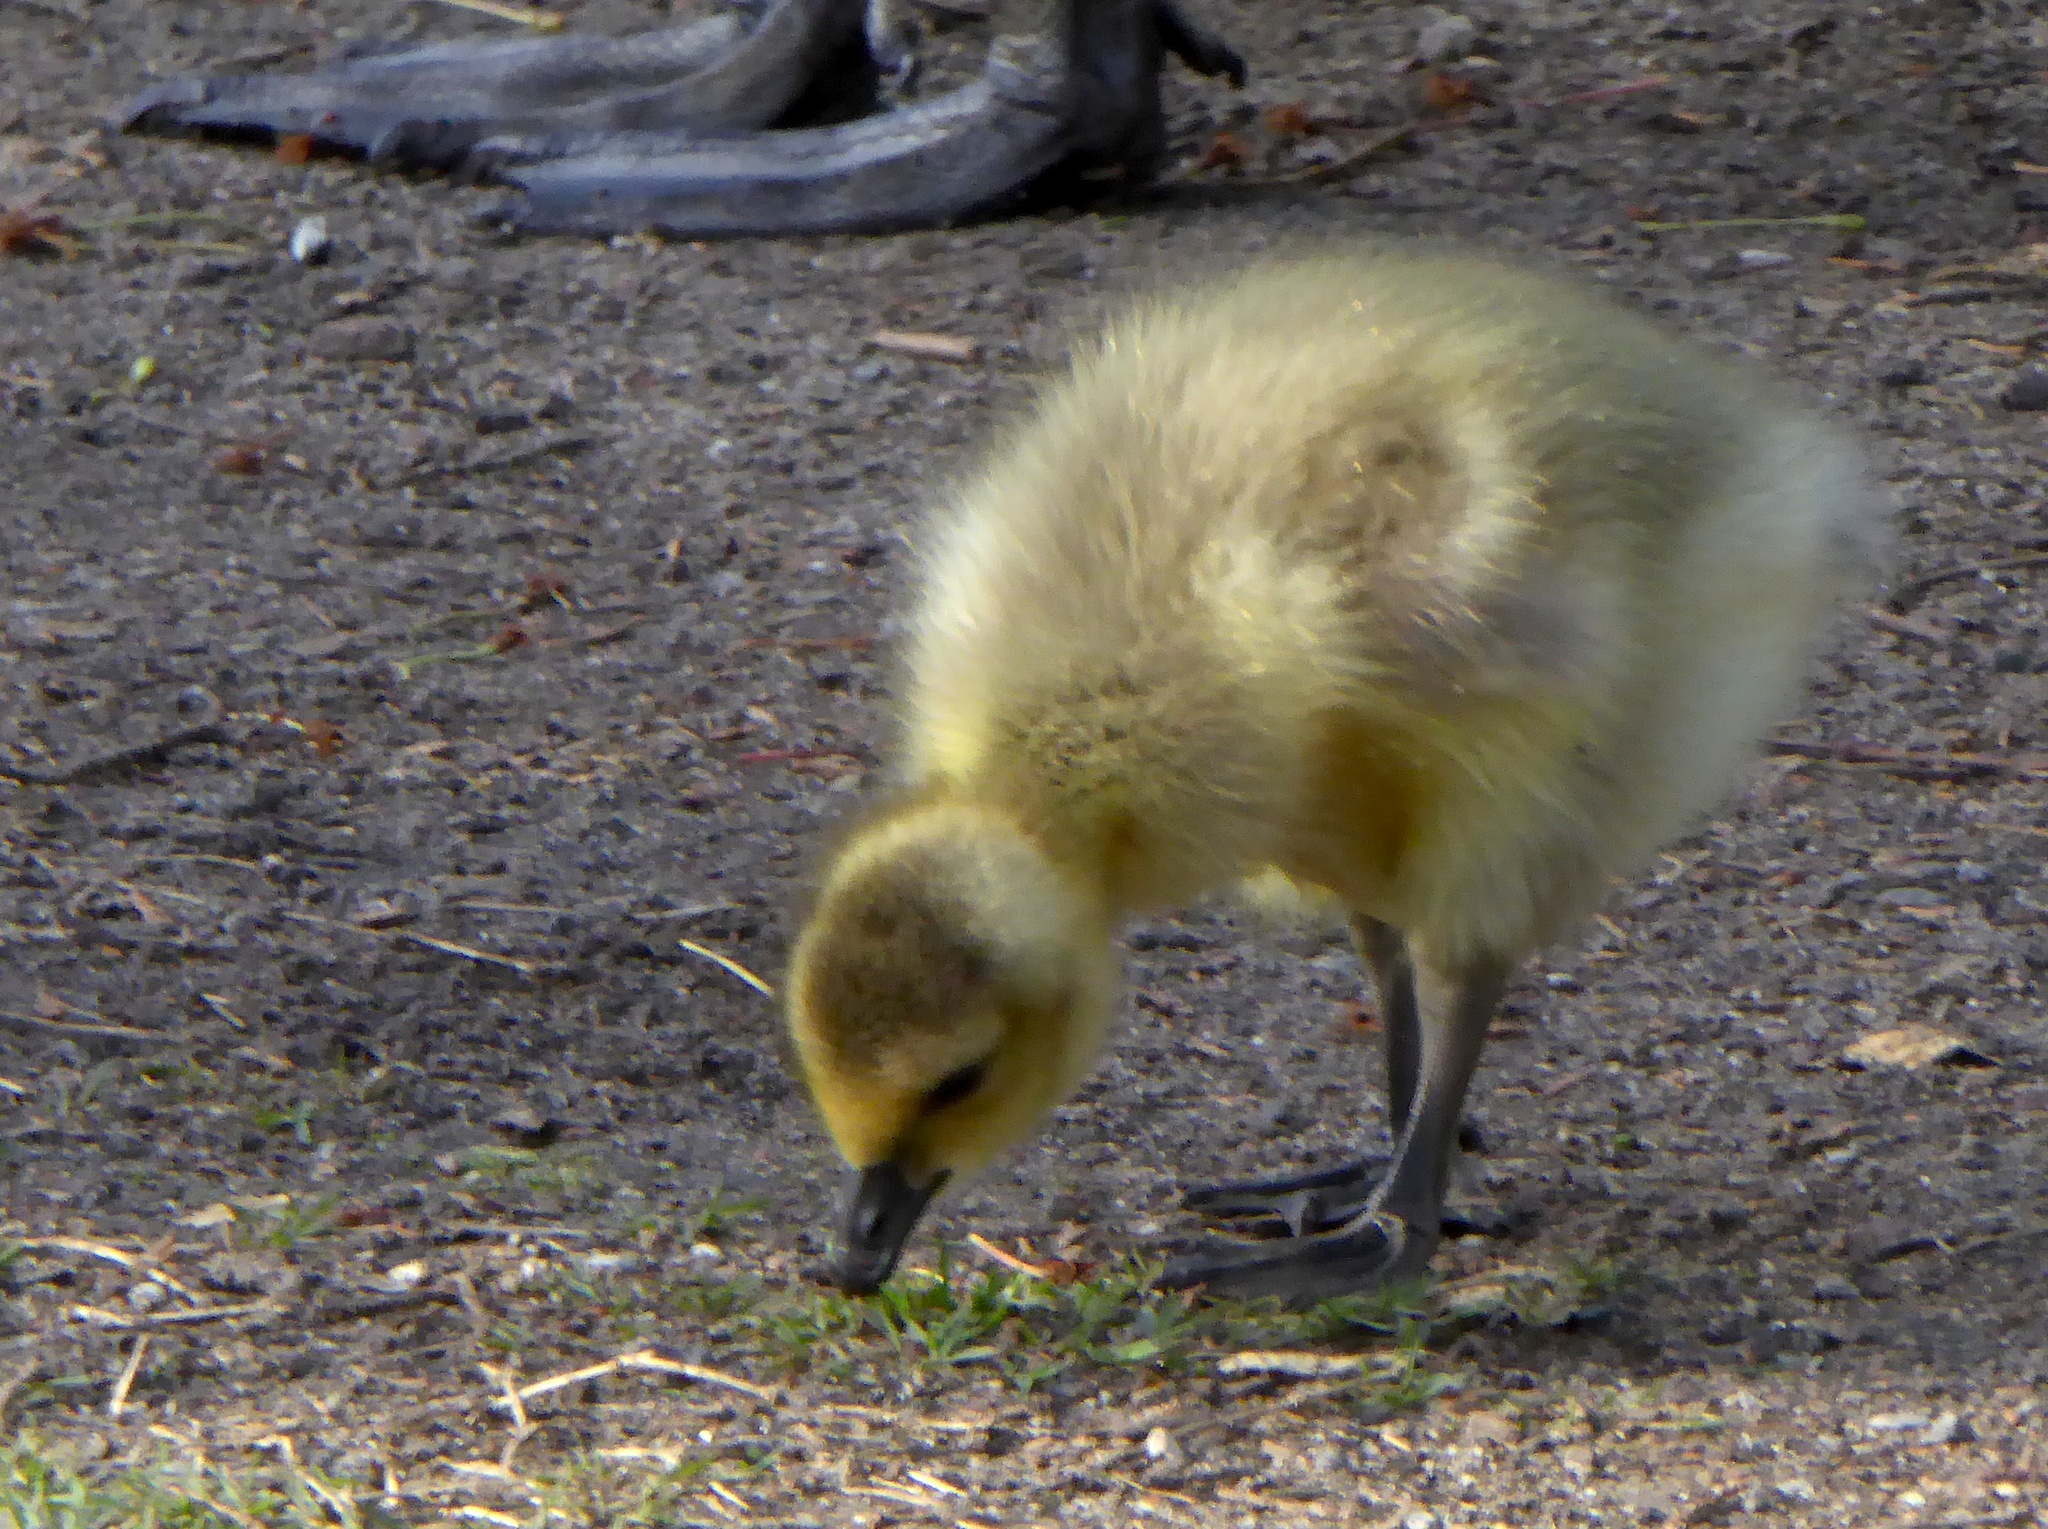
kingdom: Animalia
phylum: Chordata
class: Aves
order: Anseriformes
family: Anatidae
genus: Branta
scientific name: Branta canadensis
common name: Canada goose
